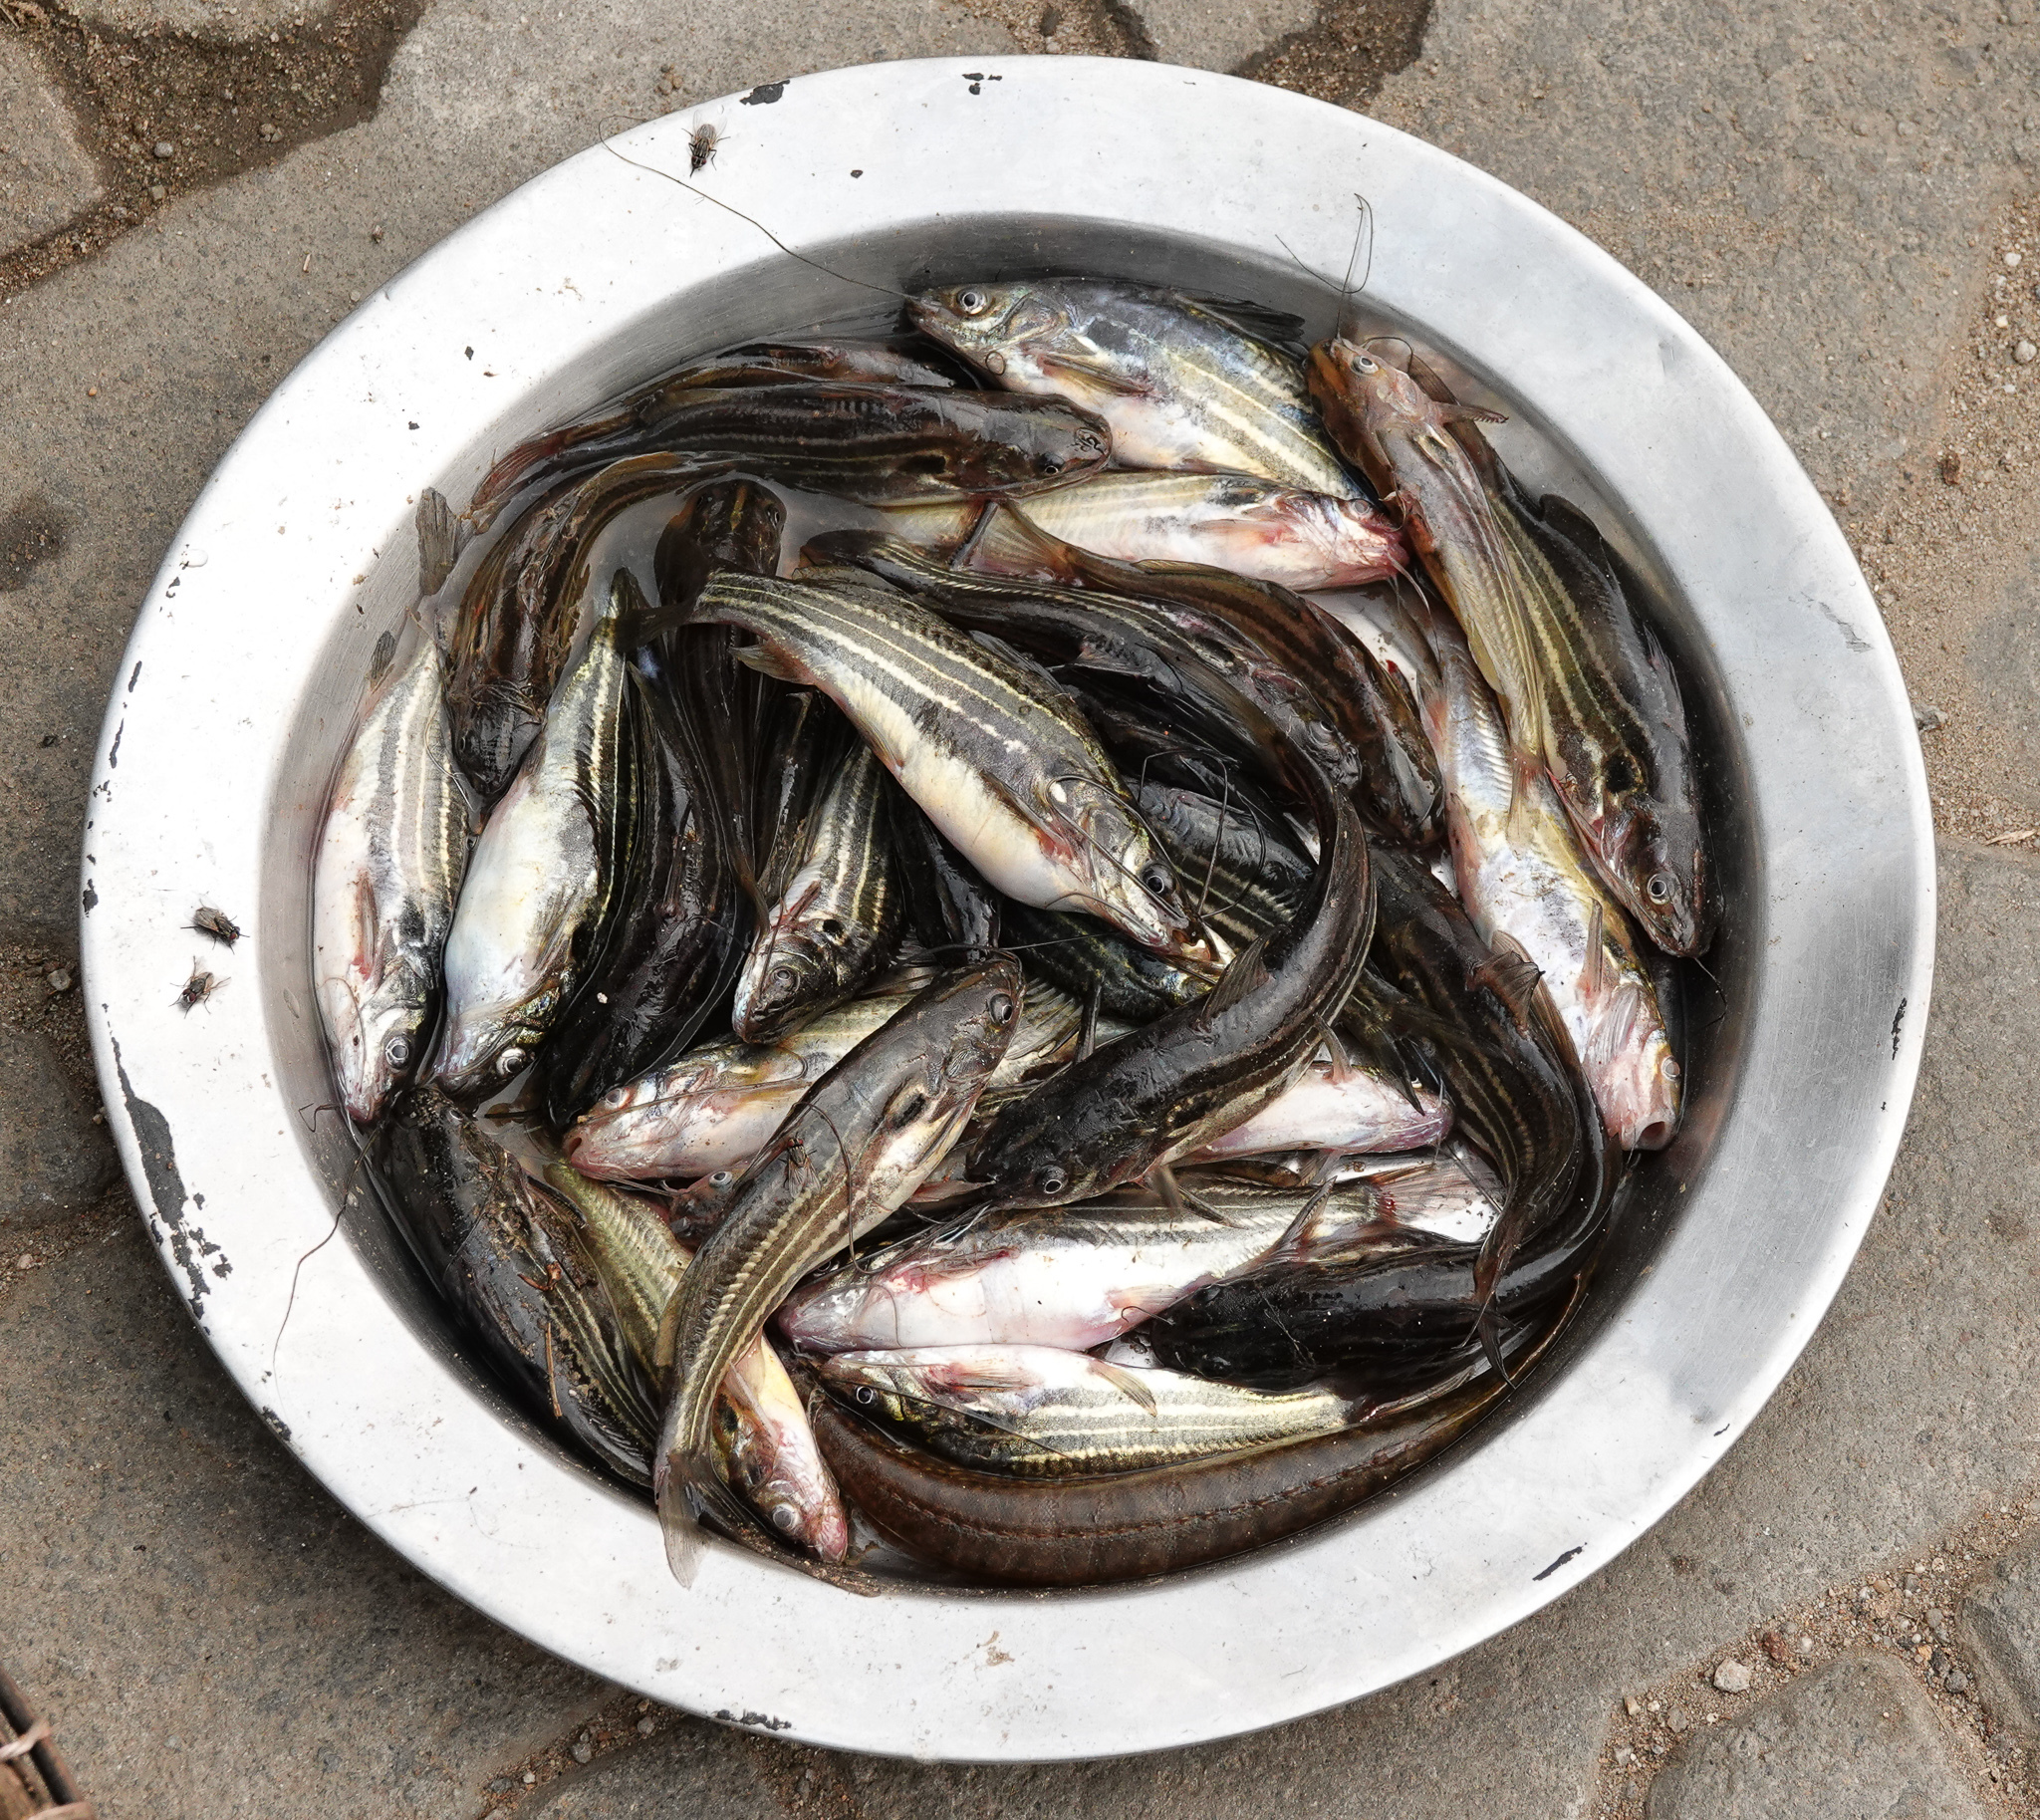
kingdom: Animalia
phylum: Chordata
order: Siluriformes
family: Bagridae
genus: Mystus
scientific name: Mystus tengara
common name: Stripped dwarf catfish
